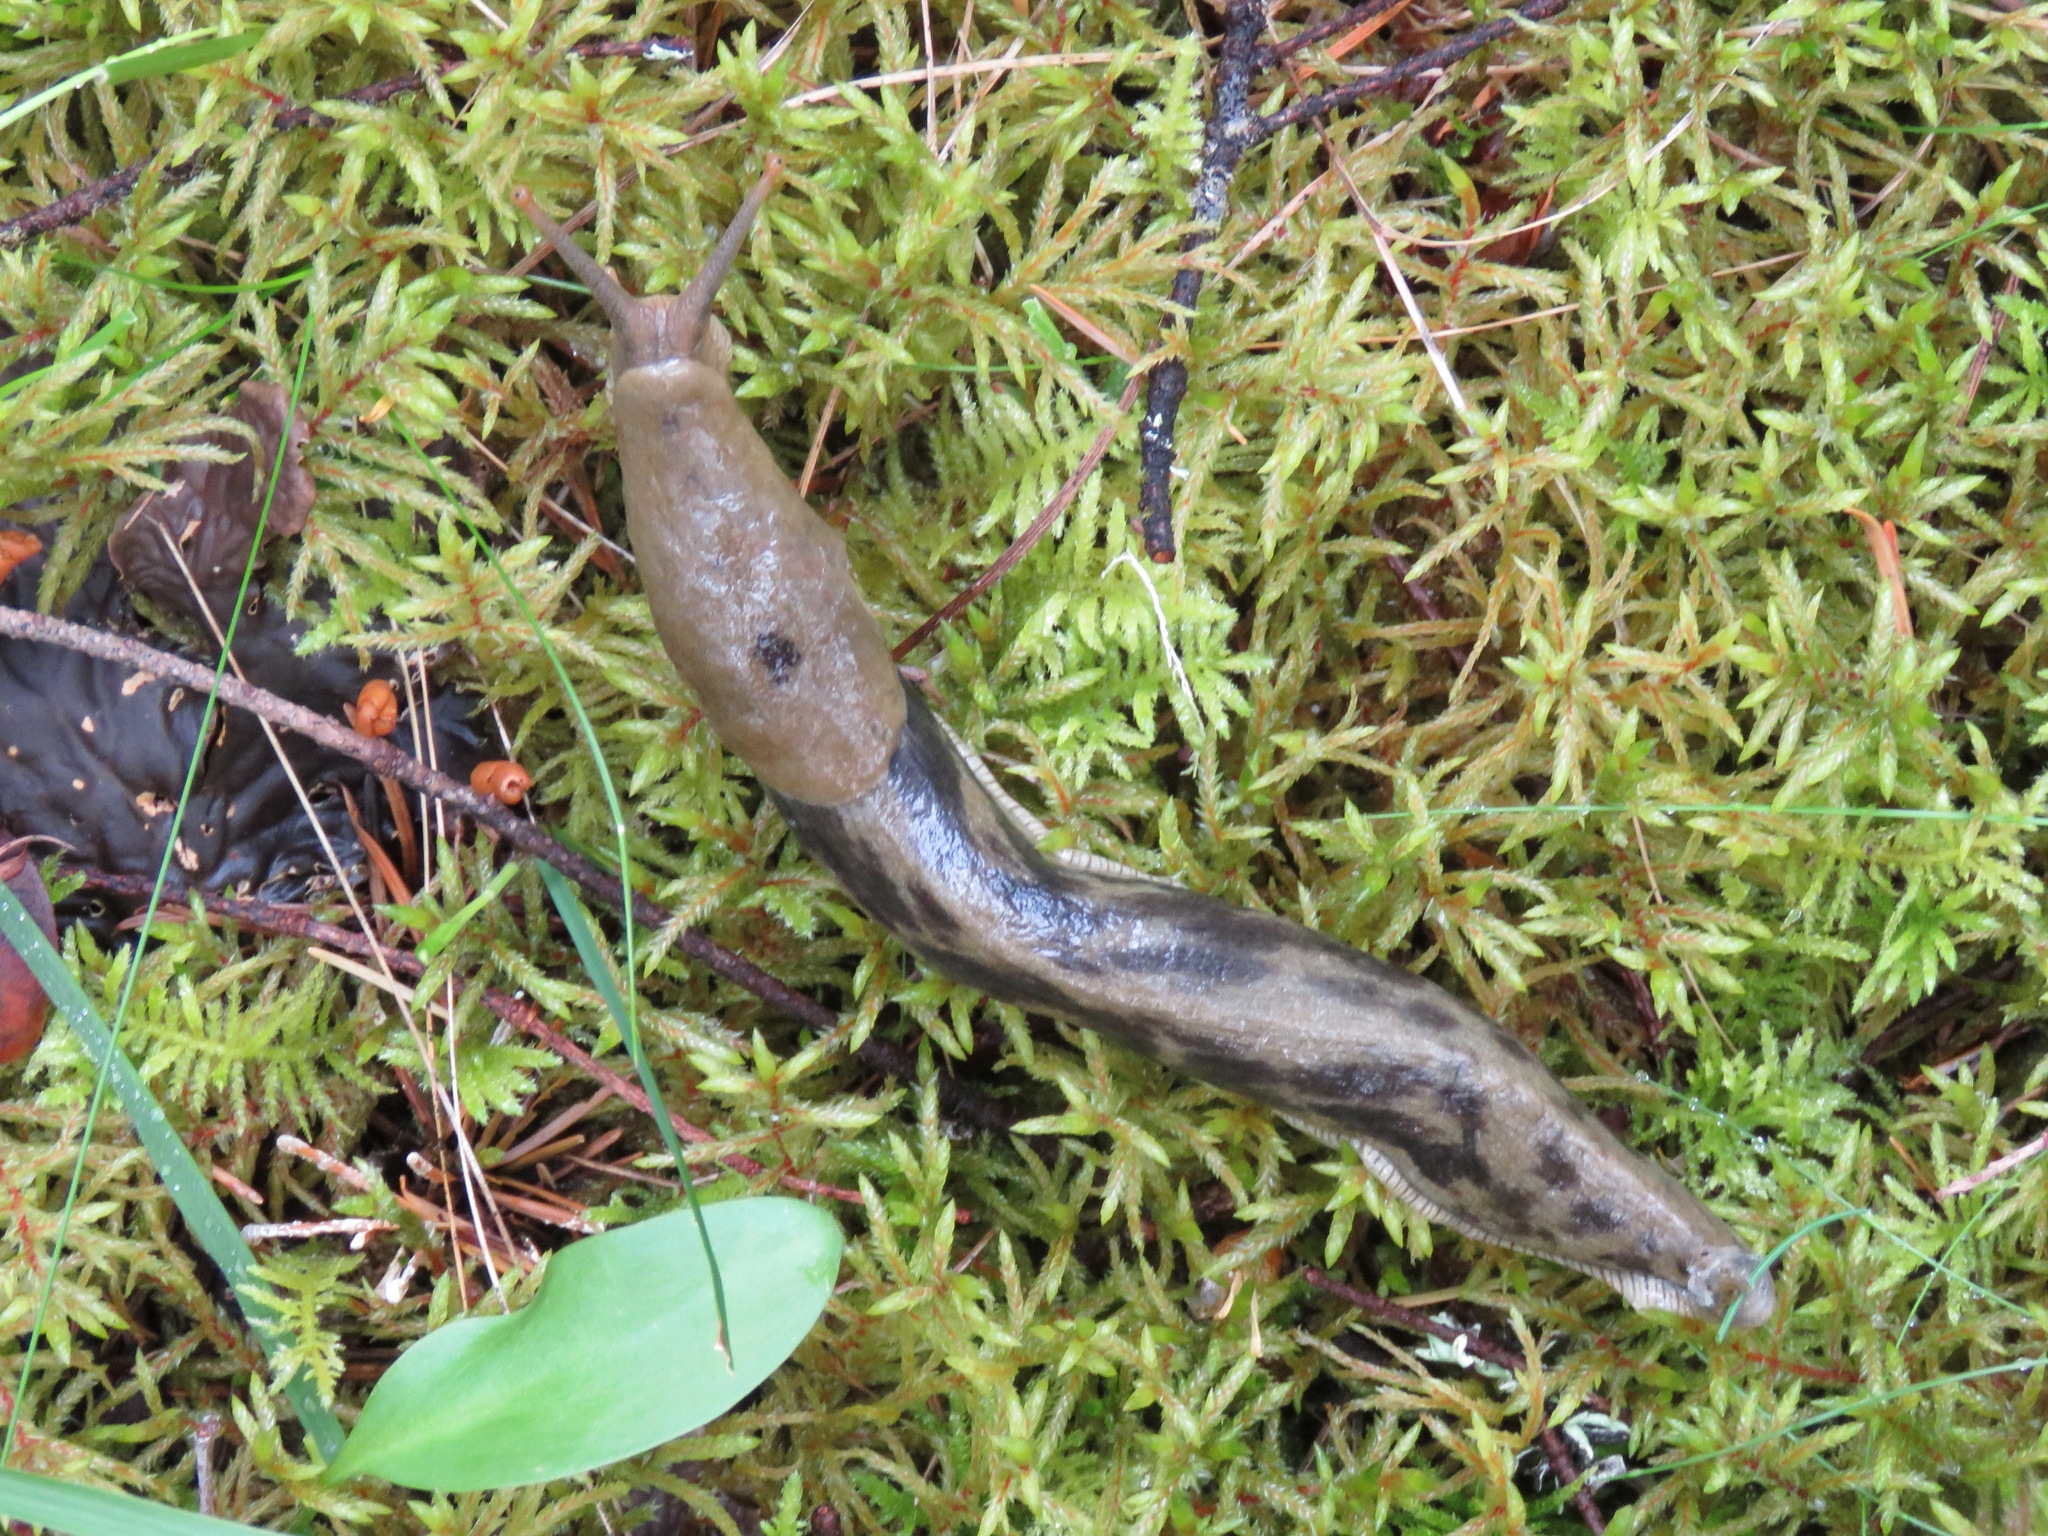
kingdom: Animalia
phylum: Mollusca
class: Gastropoda
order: Stylommatophora
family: Ariolimacidae
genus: Ariolimax
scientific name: Ariolimax columbianus
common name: Pacific banana slug
